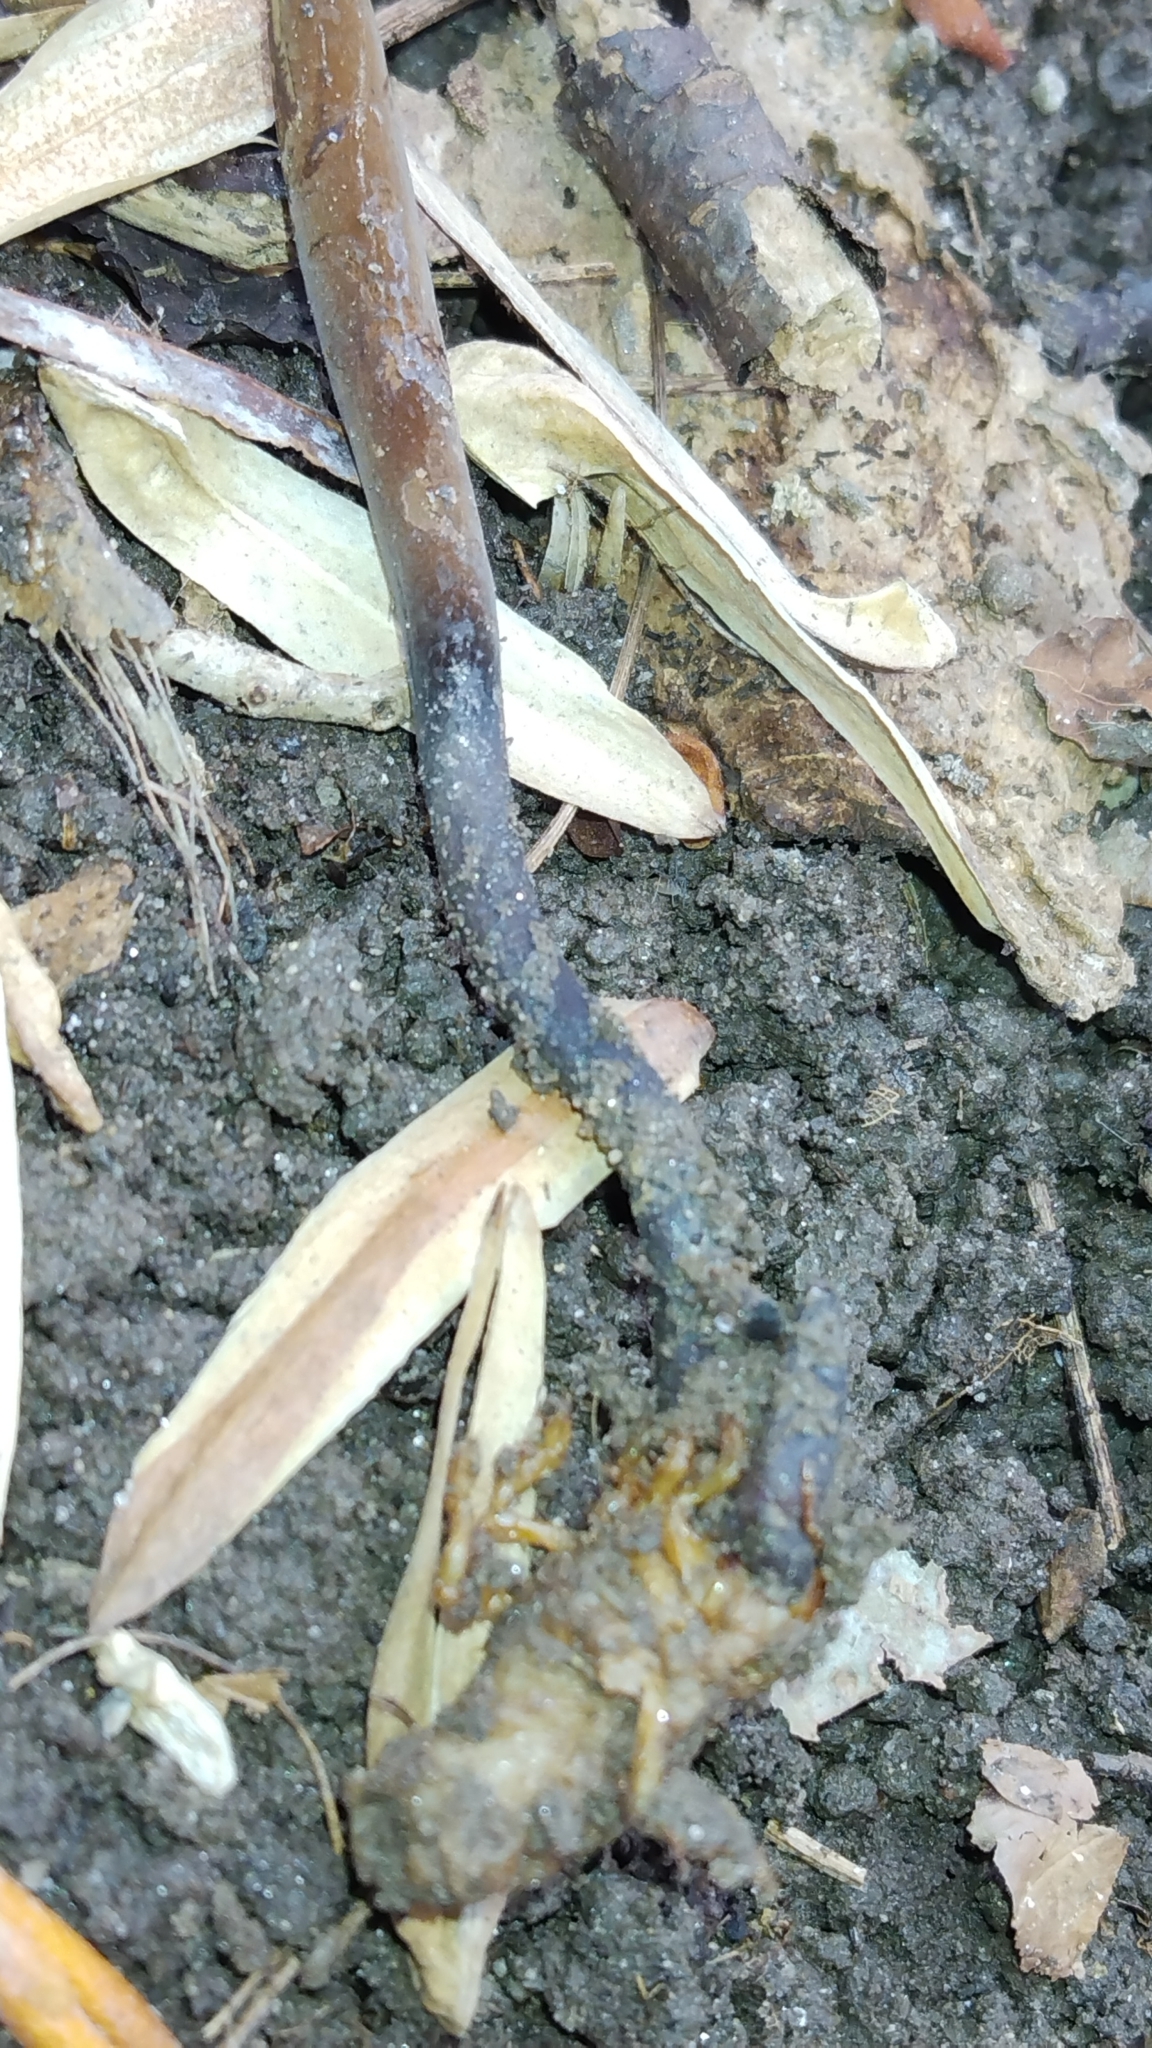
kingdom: Fungi
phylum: Ascomycota
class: Sordariomycetes
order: Hypocreales
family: Ophiocordycipitaceae
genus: Ophiocordyceps
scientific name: Ophiocordyceps ravenelii
